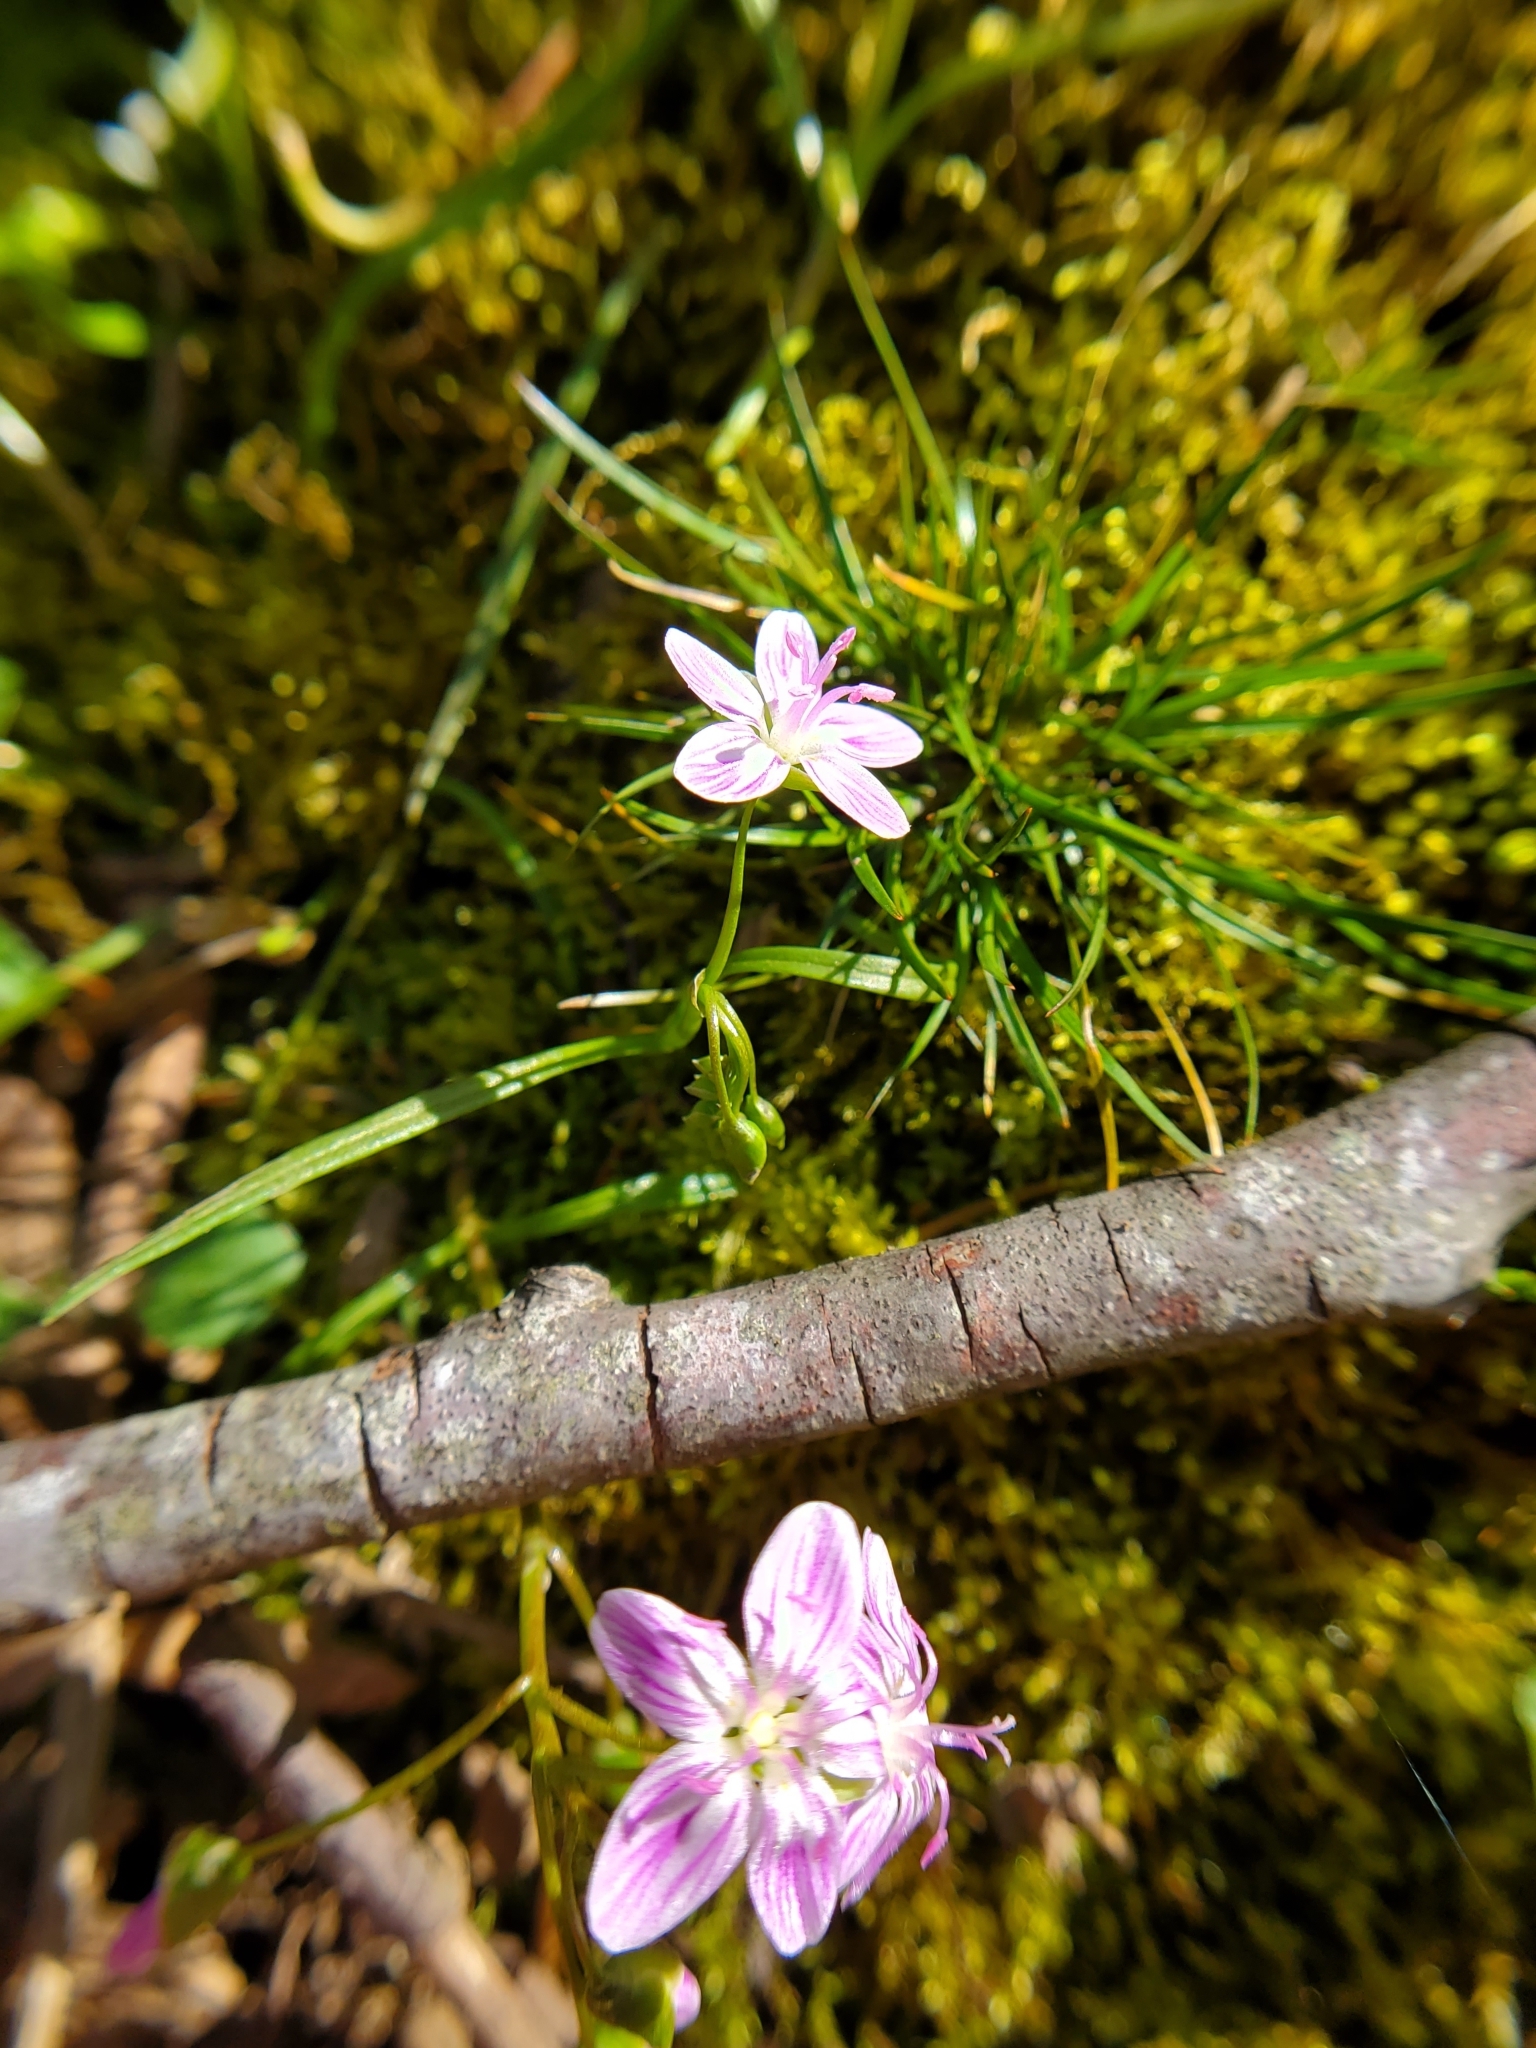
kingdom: Plantae
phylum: Tracheophyta
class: Magnoliopsida
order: Caryophyllales
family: Montiaceae
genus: Claytonia
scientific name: Claytonia virginica
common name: Virginia springbeauty
